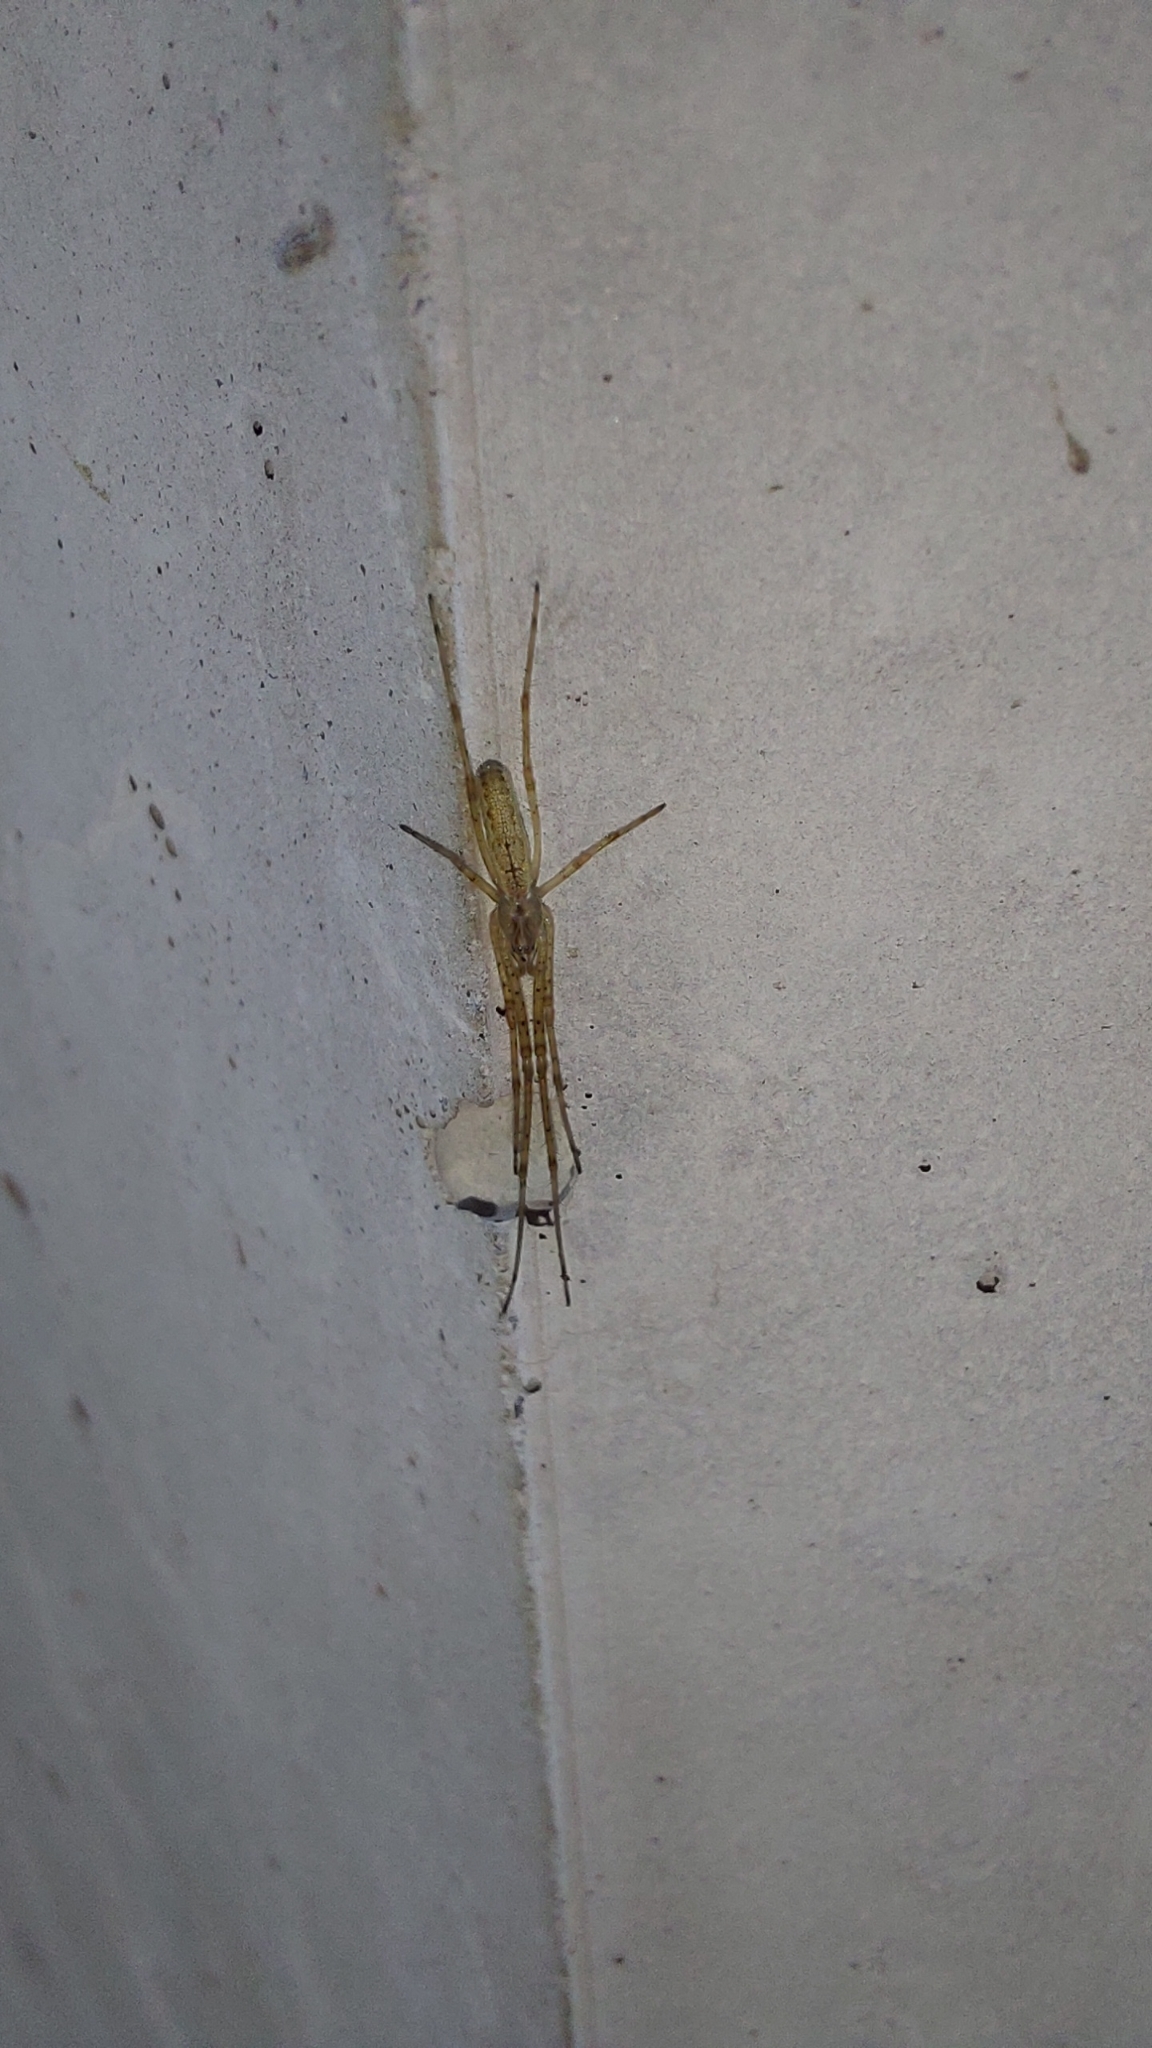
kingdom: Animalia
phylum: Arthropoda
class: Arachnida
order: Araneae
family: Tetragnathidae
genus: Tetragnatha
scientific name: Tetragnatha
